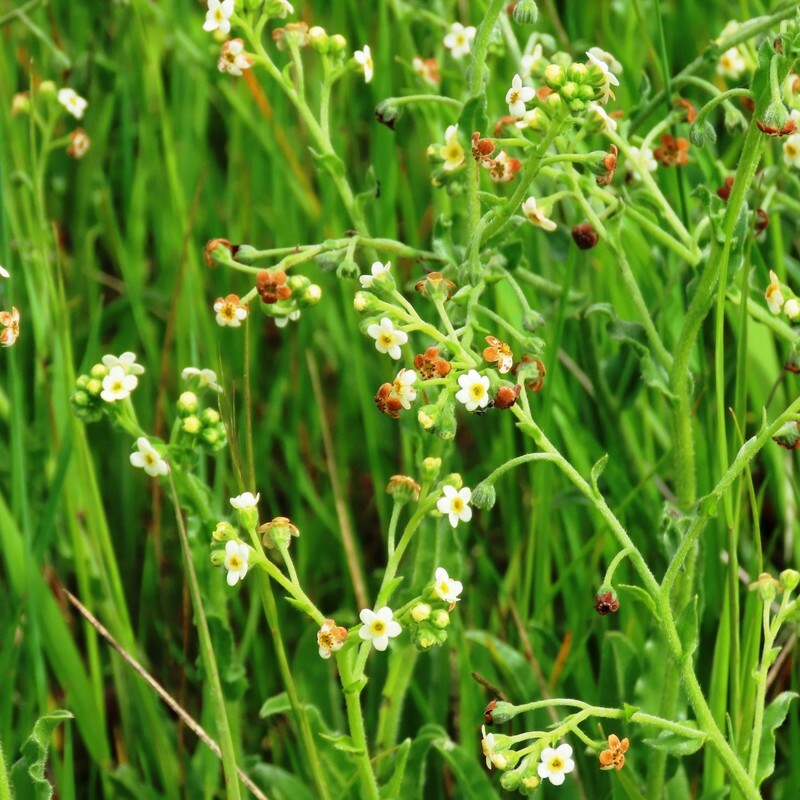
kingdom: Plantae
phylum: Tracheophyta
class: Magnoliopsida
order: Boraginales
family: Boraginaceae
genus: Hackelia
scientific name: Hackelia suaveolens
